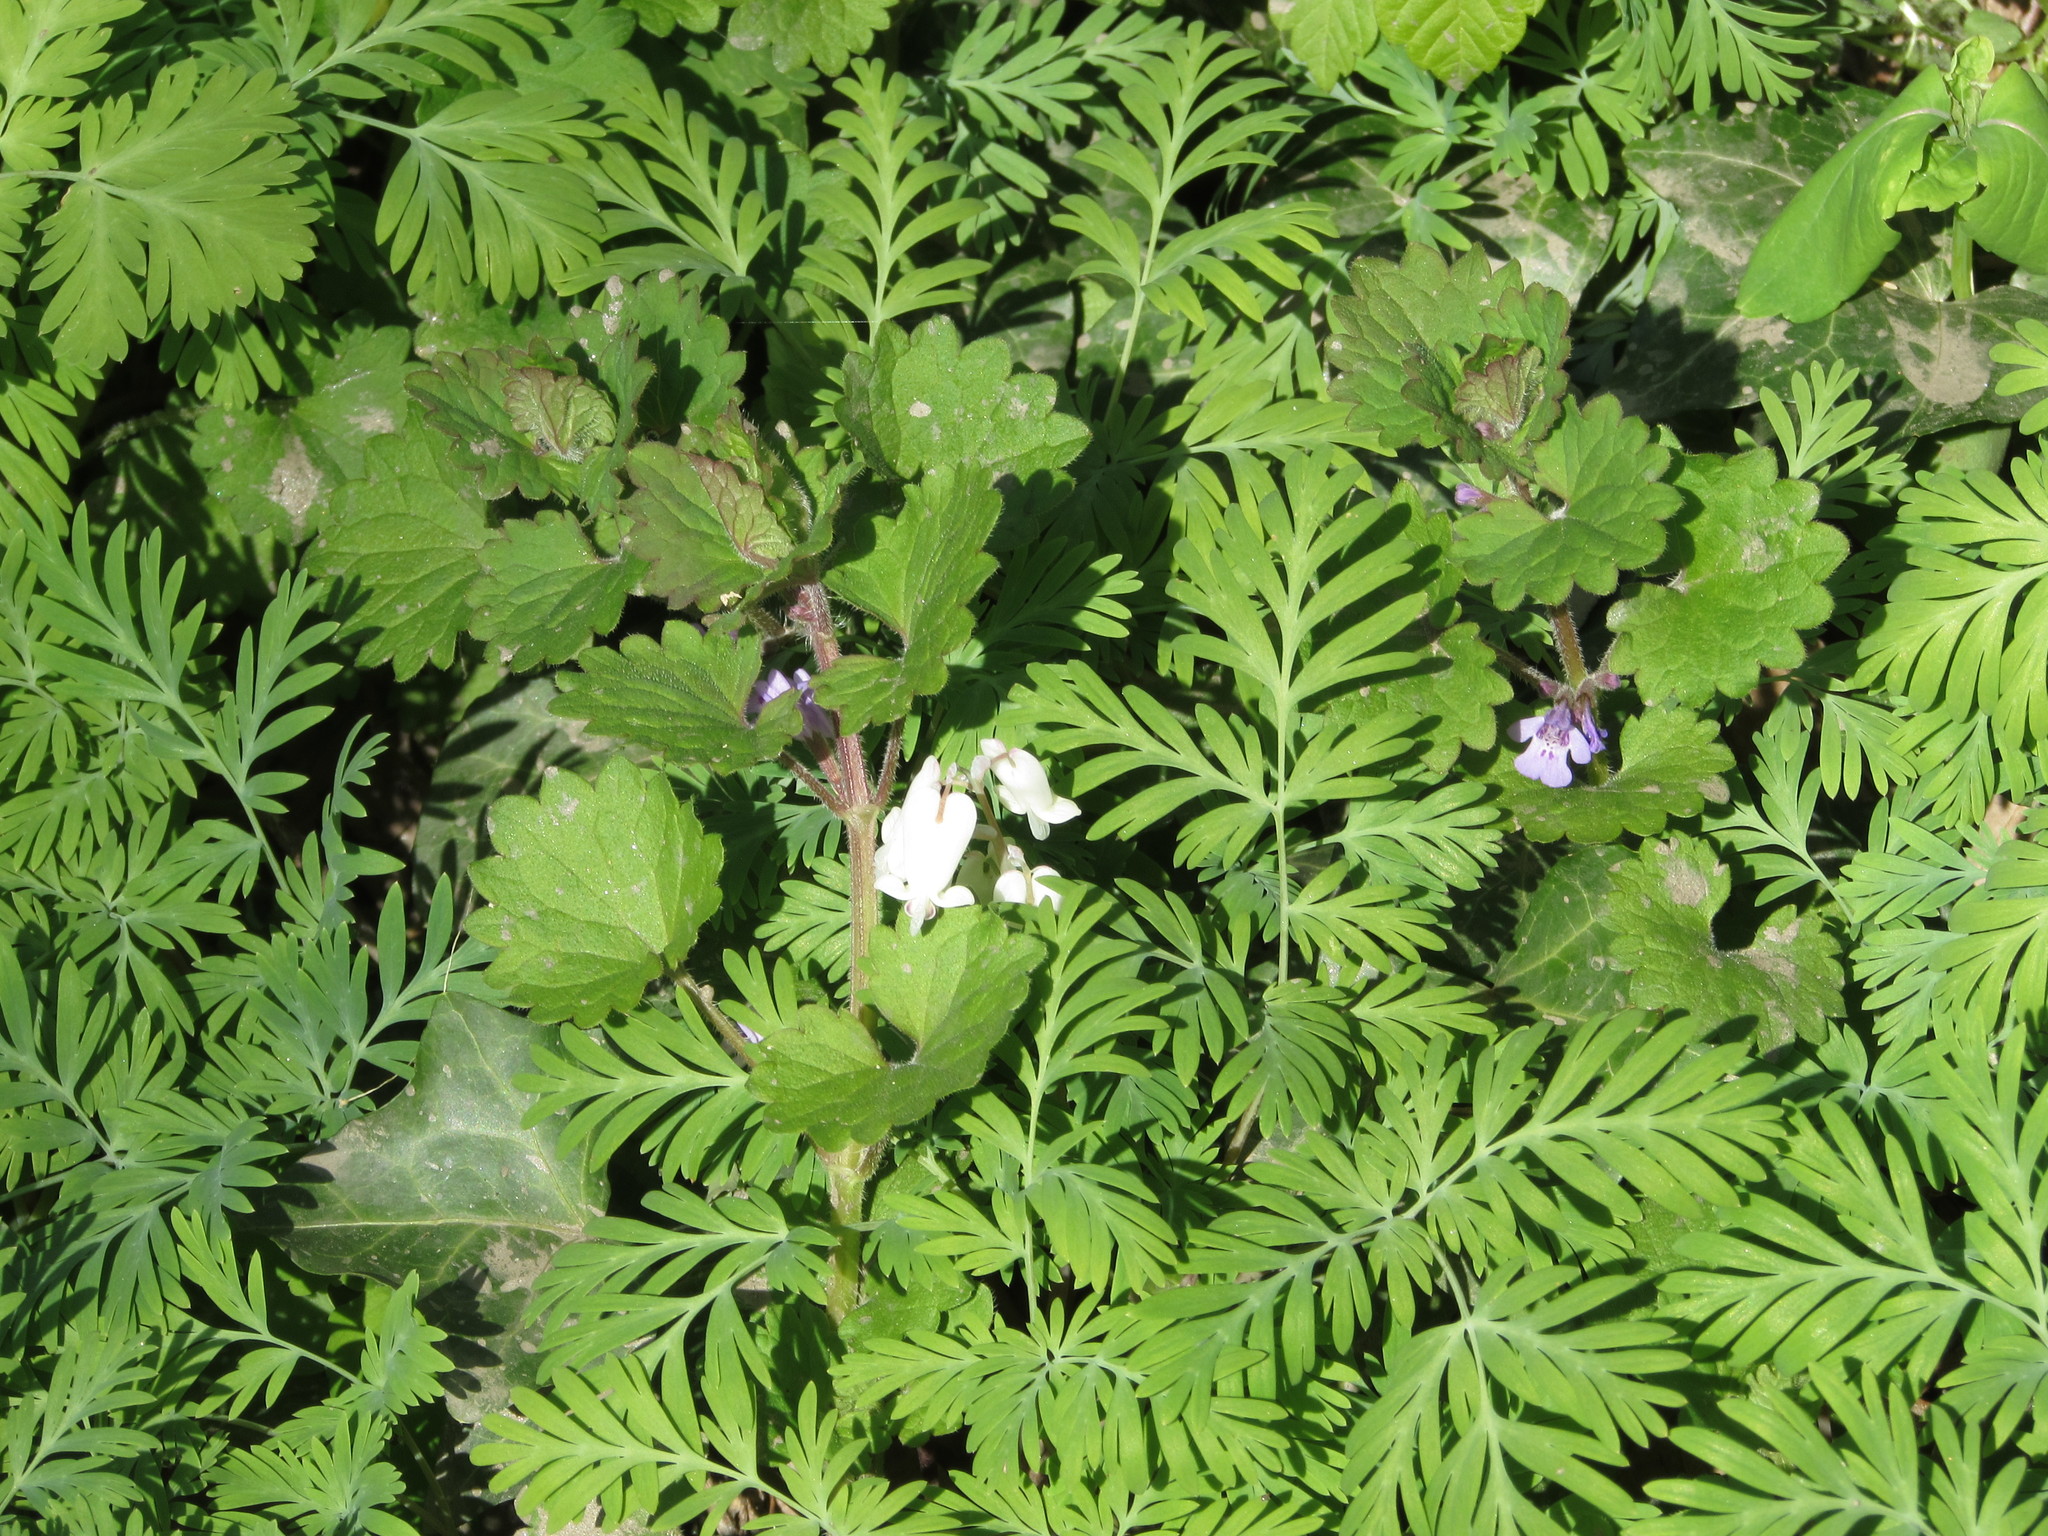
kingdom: Plantae
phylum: Tracheophyta
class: Magnoliopsida
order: Ranunculales
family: Papaveraceae
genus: Dicentra
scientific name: Dicentra canadensis
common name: Squirrel-corn
